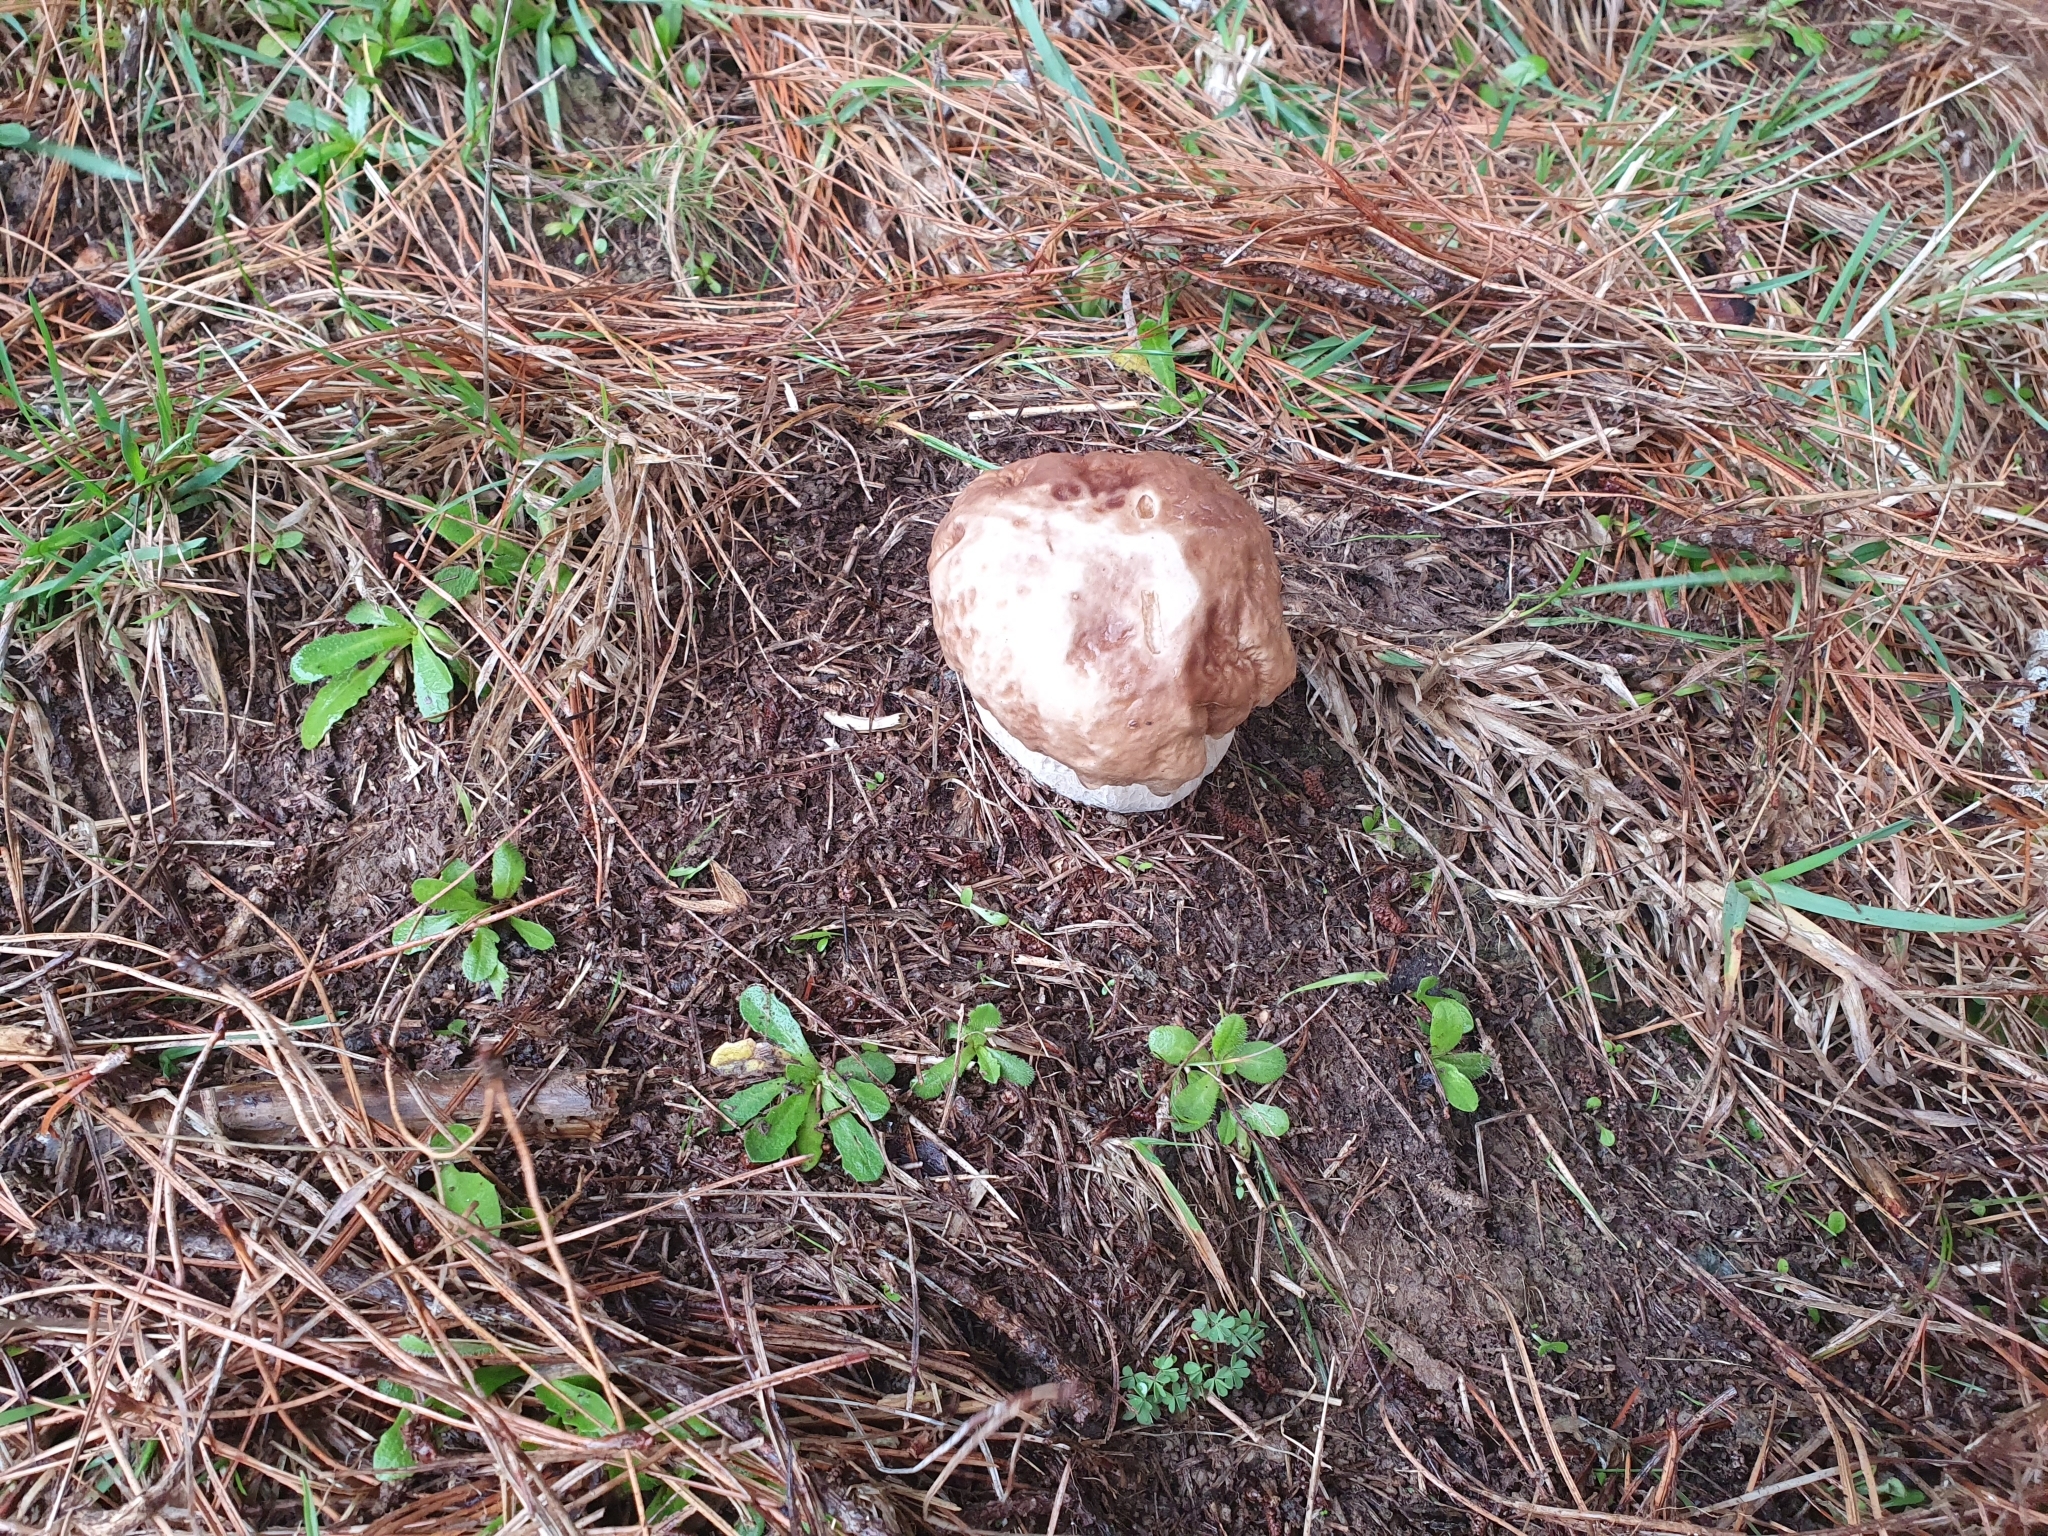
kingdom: Fungi
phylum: Basidiomycota
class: Agaricomycetes
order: Boletales
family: Boletaceae
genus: Boletus
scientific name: Boletus edulis
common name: Cep
